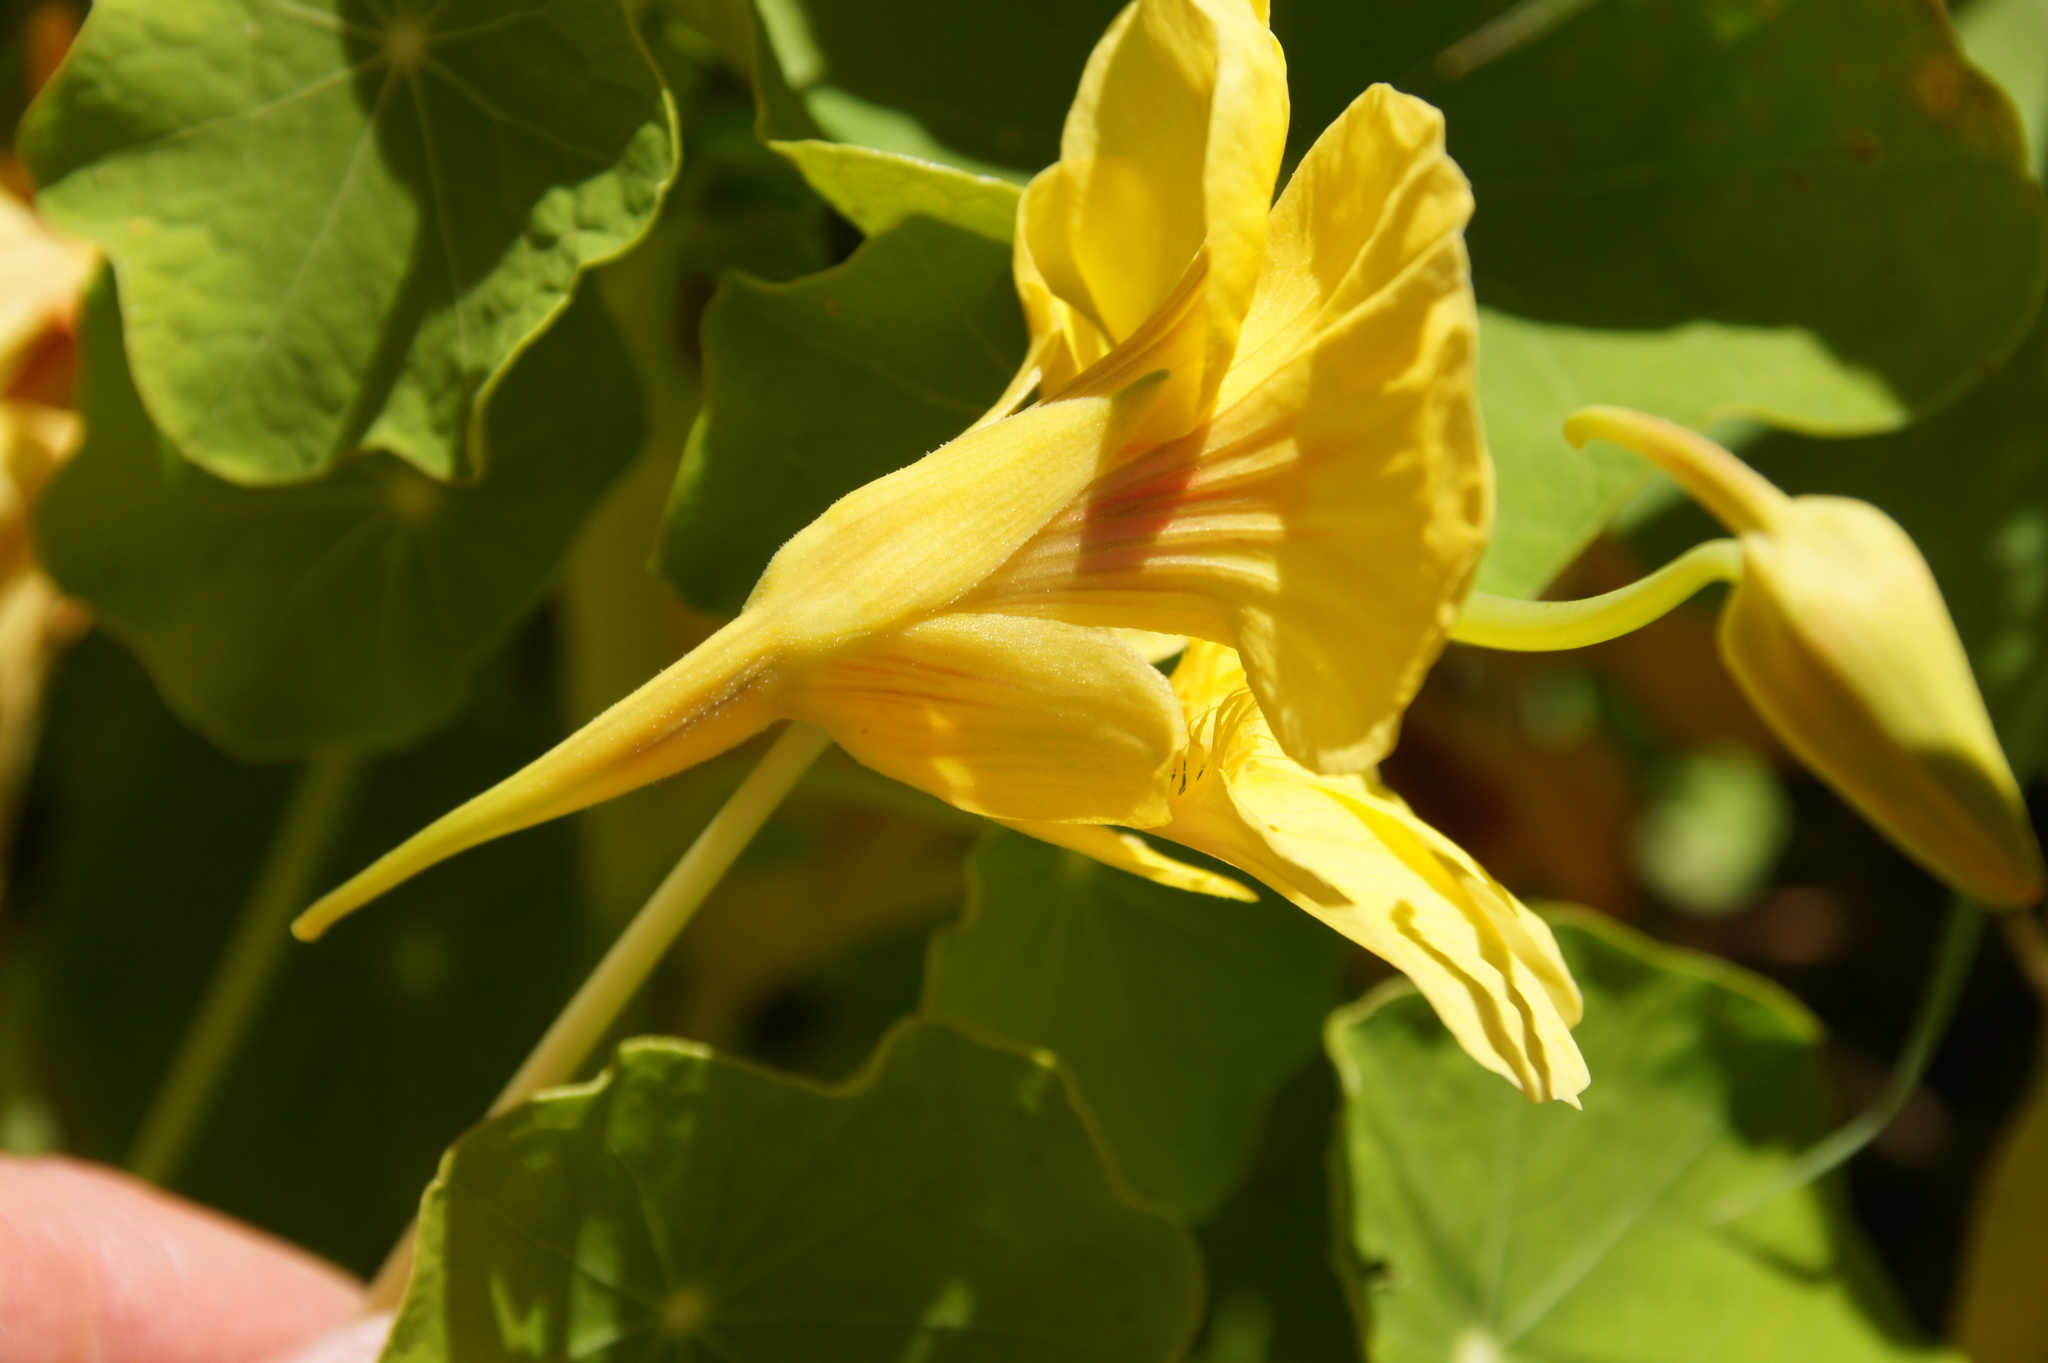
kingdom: Plantae
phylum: Tracheophyta
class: Magnoliopsida
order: Brassicales
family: Tropaeolaceae
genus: Tropaeolum
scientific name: Tropaeolum majus
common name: Nasturtium
